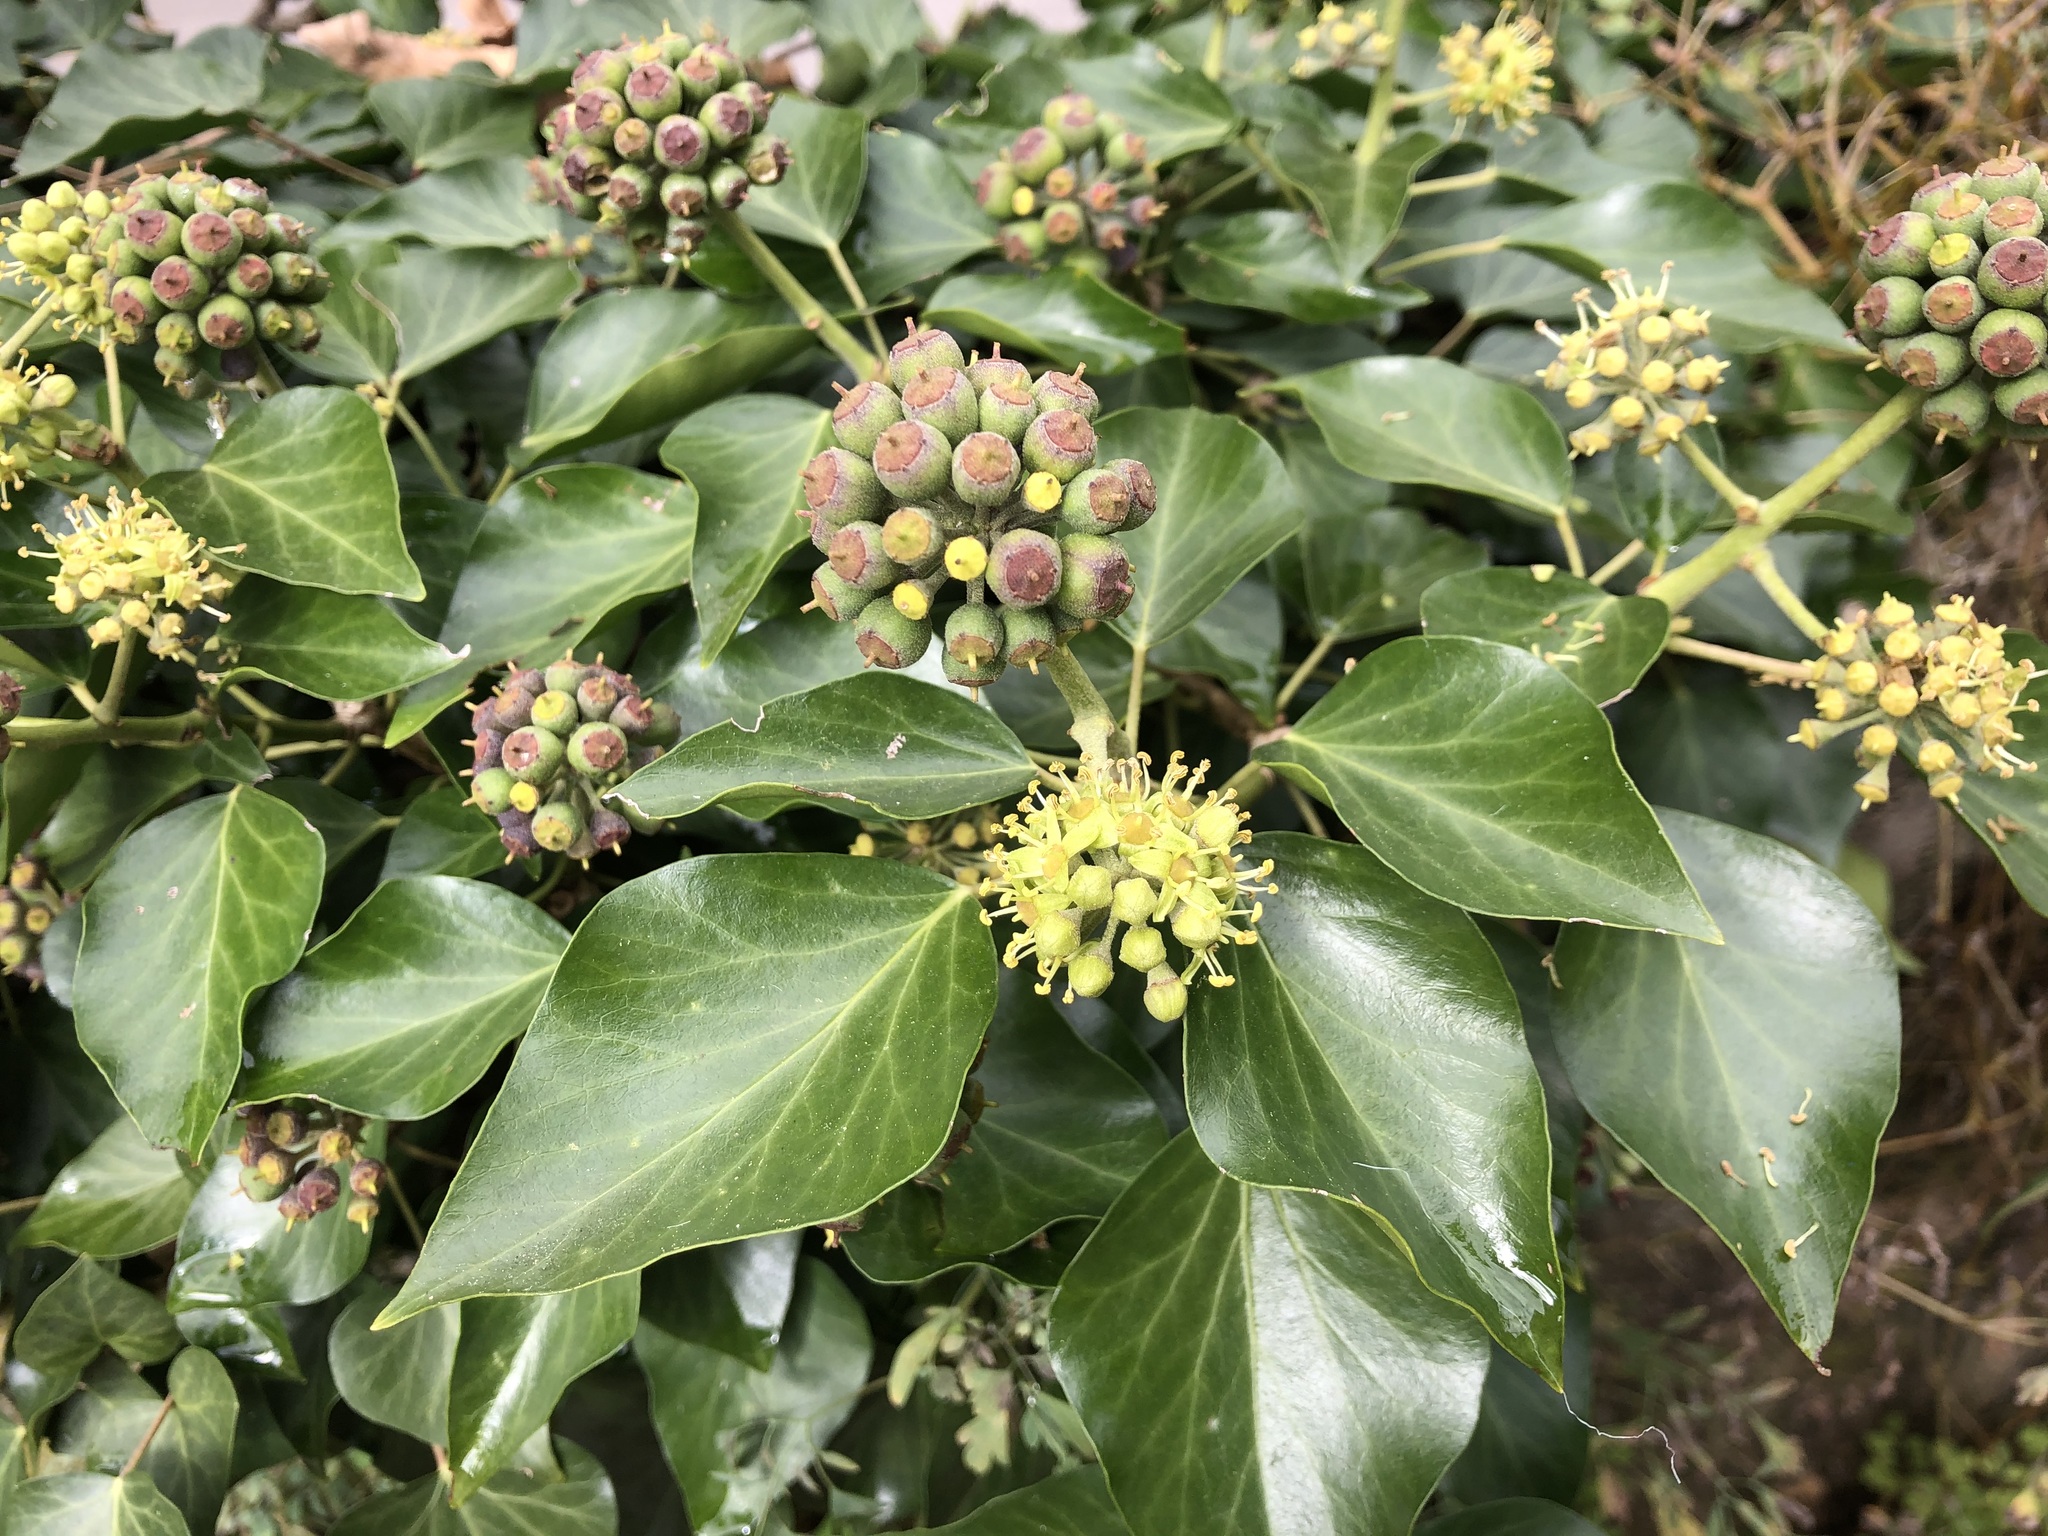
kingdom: Plantae
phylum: Tracheophyta
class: Magnoliopsida
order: Apiales
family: Araliaceae
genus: Hedera
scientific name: Hedera helix
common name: Ivy
